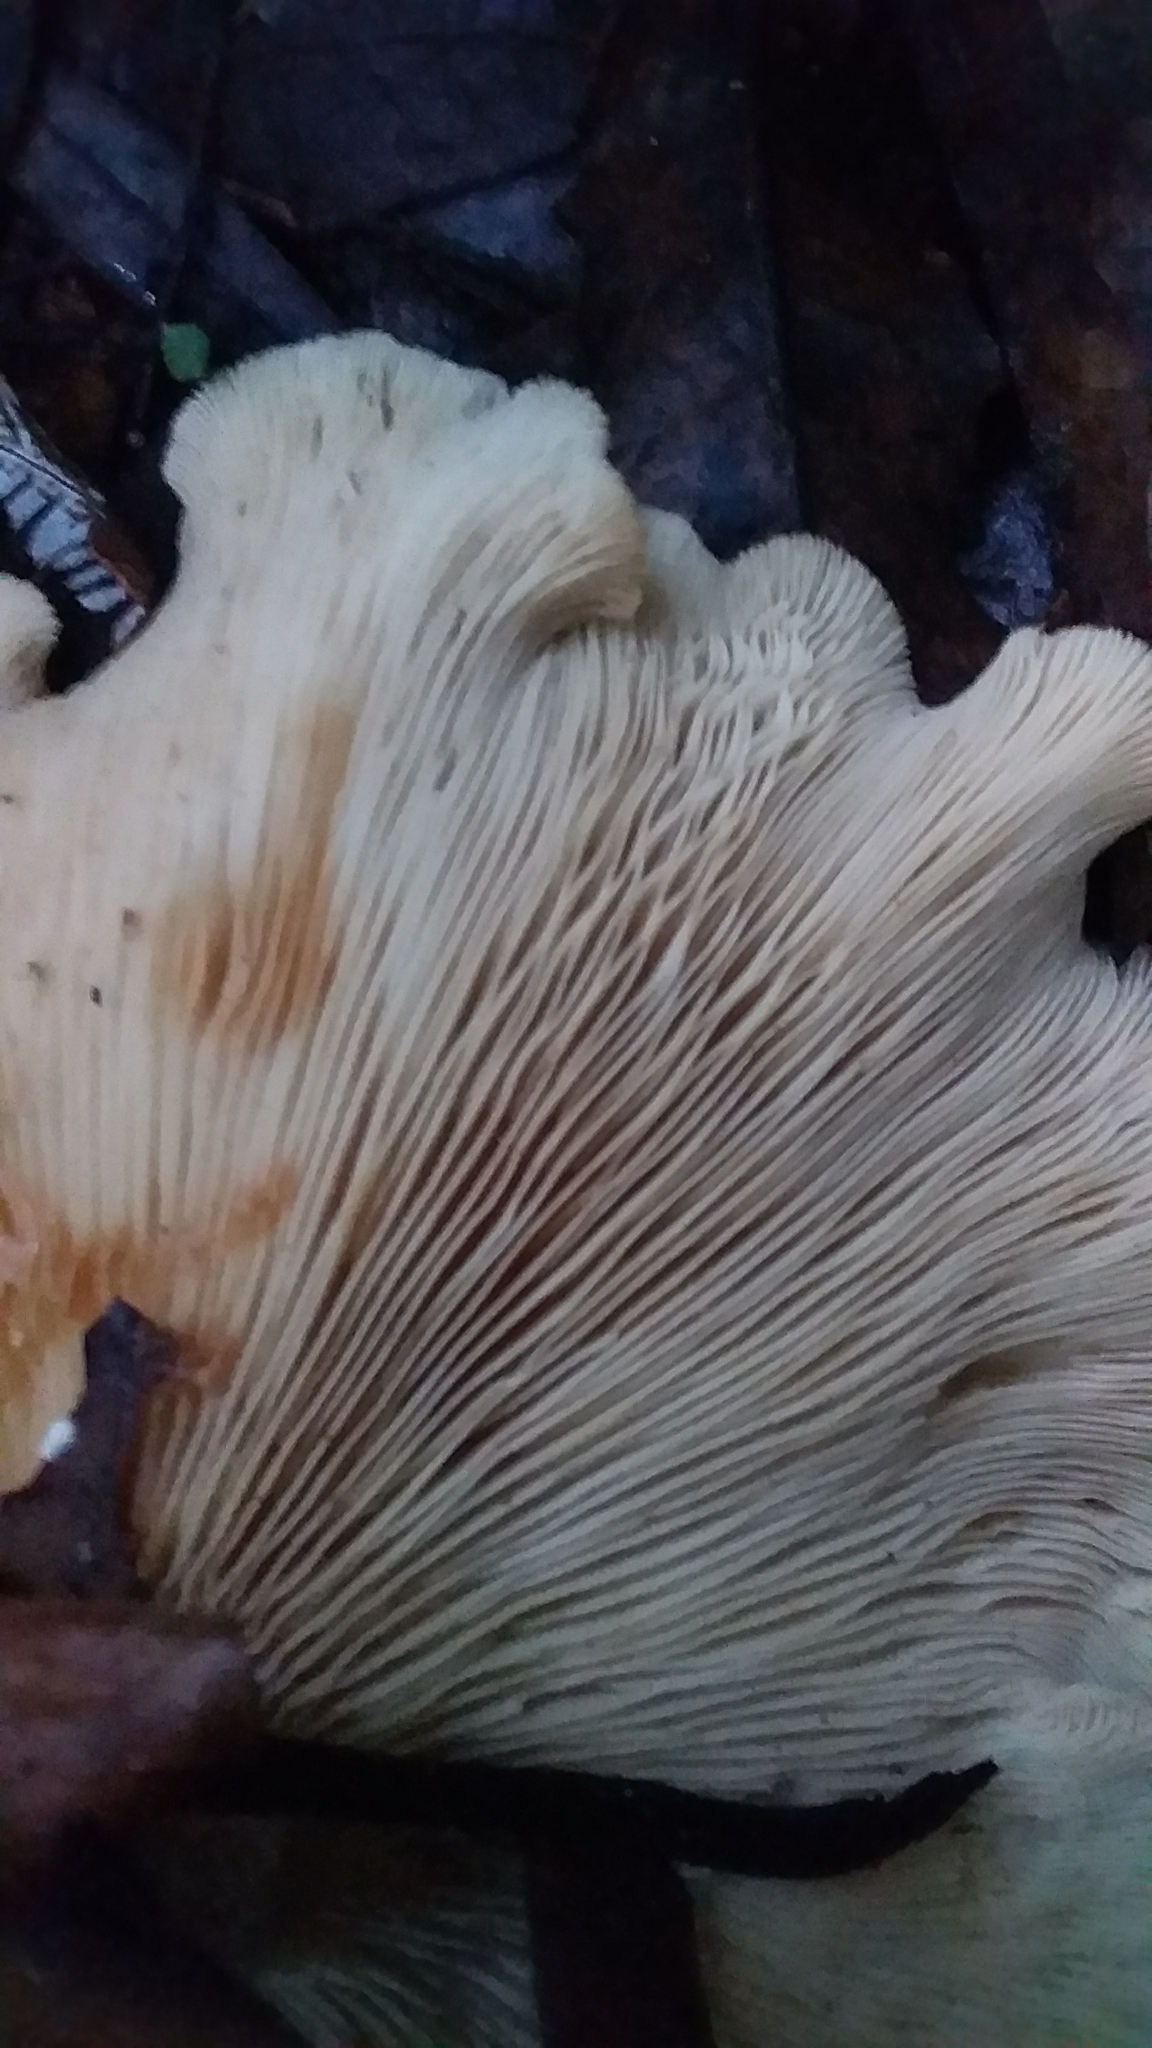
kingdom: Fungi
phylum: Basidiomycota
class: Agaricomycetes
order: Agaricales
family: Tricholomataceae
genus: Clitocybe
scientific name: Clitocybe nebularis
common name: Clouded agaric
